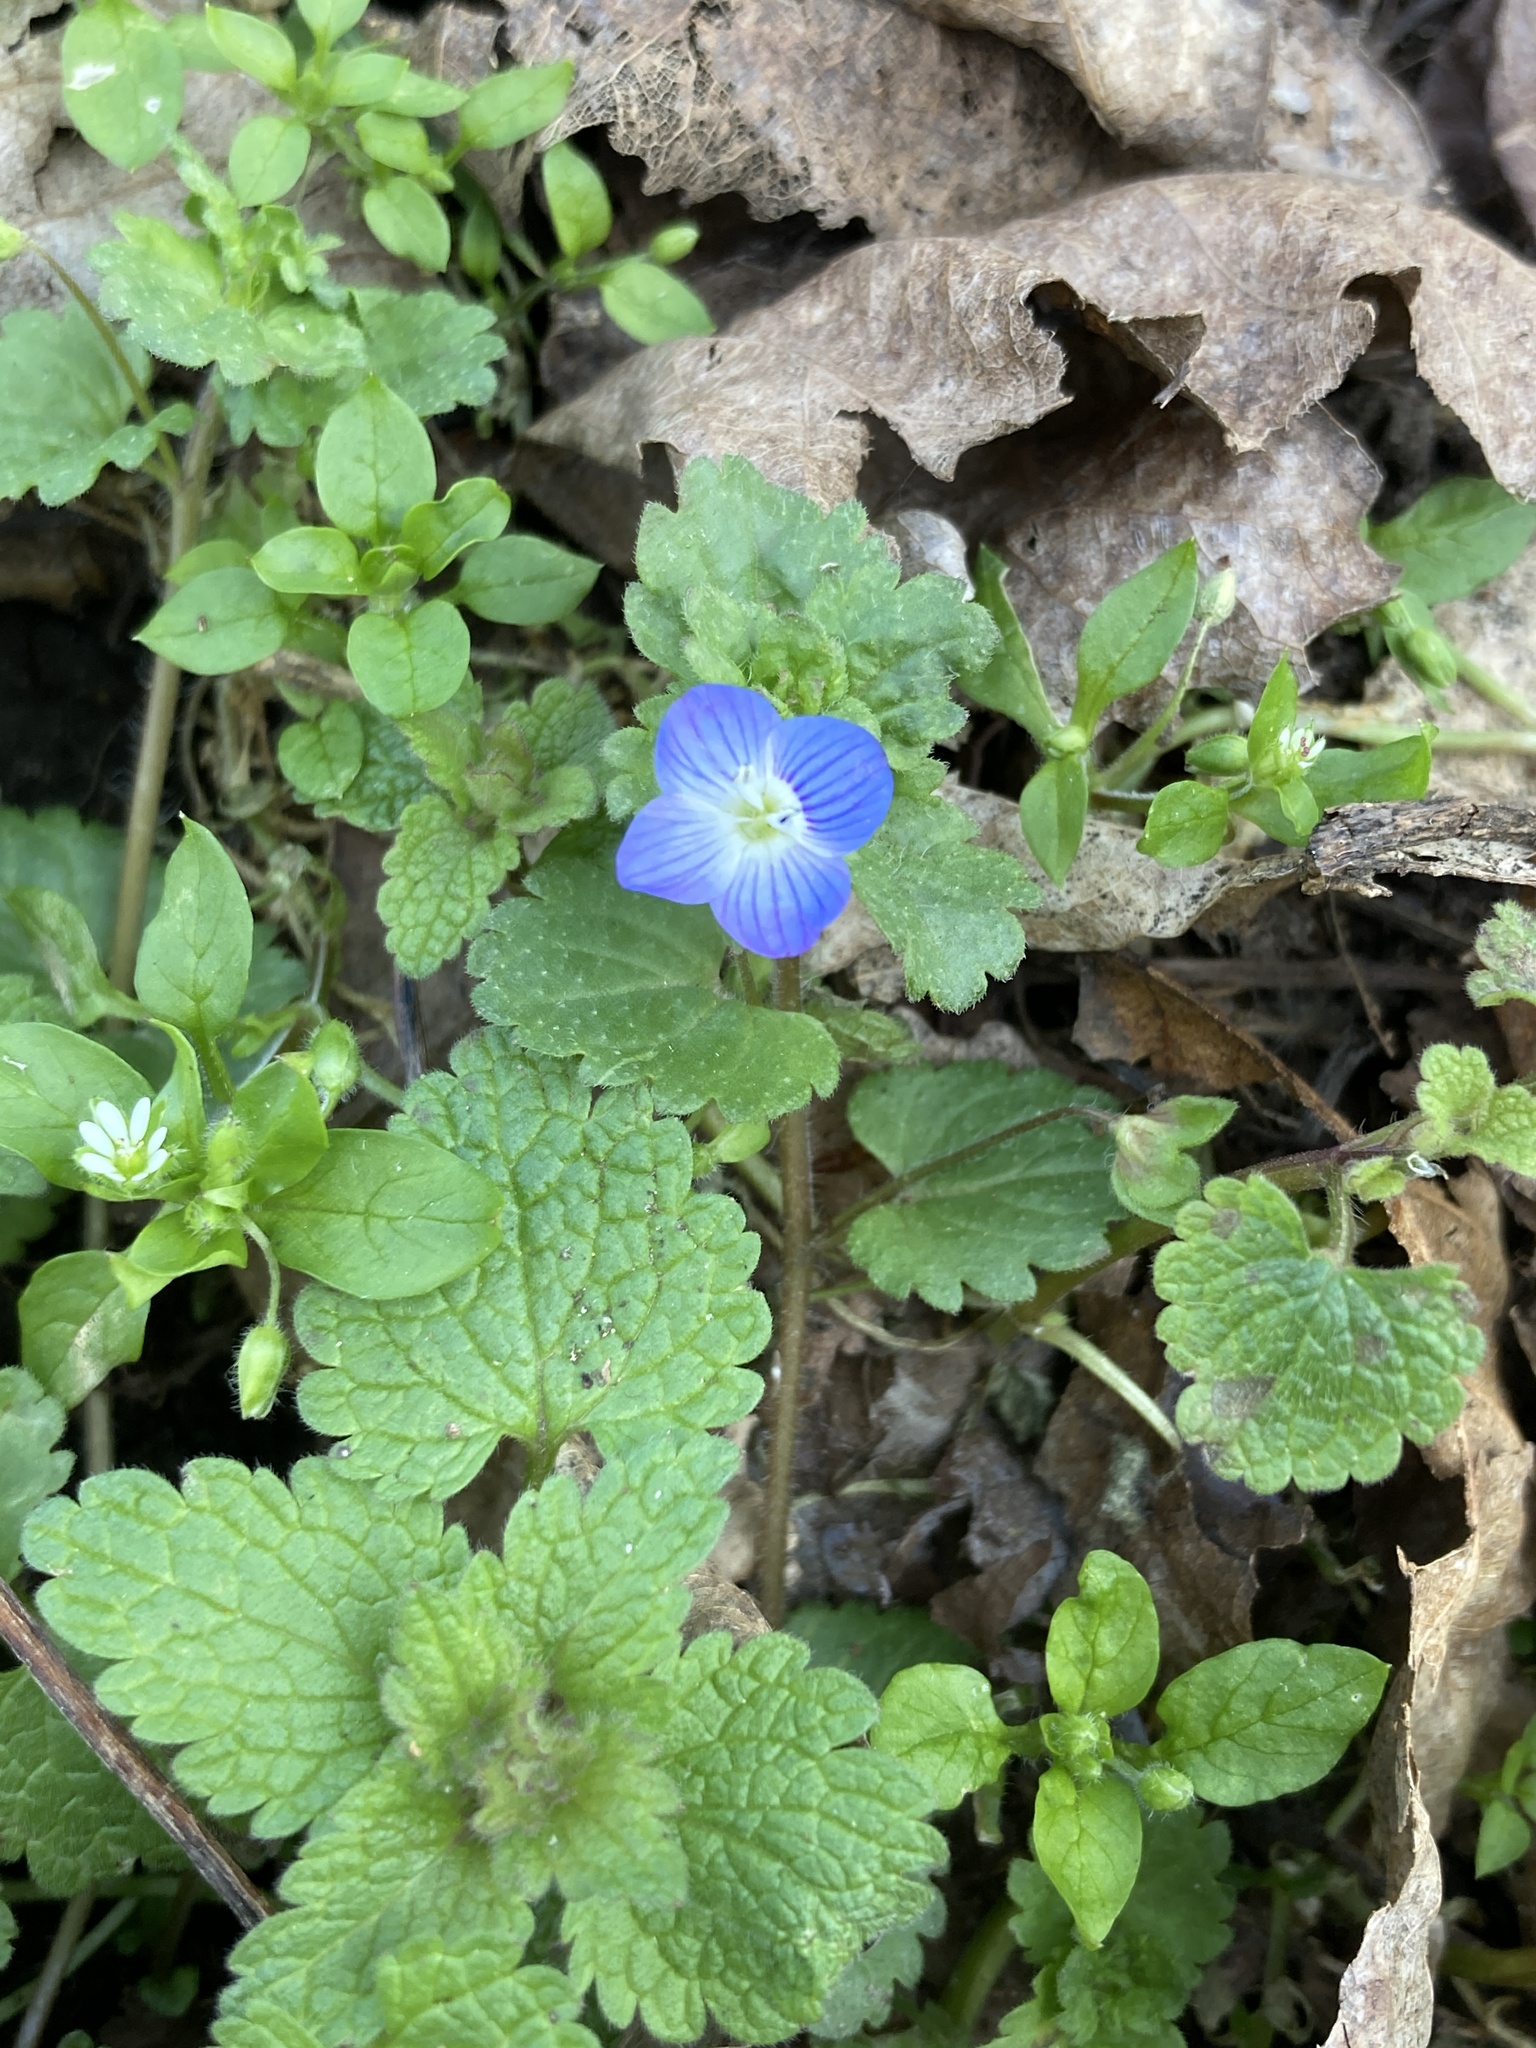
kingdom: Plantae
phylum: Tracheophyta
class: Magnoliopsida
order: Lamiales
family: Plantaginaceae
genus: Veronica
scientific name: Veronica persica
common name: Common field-speedwell
